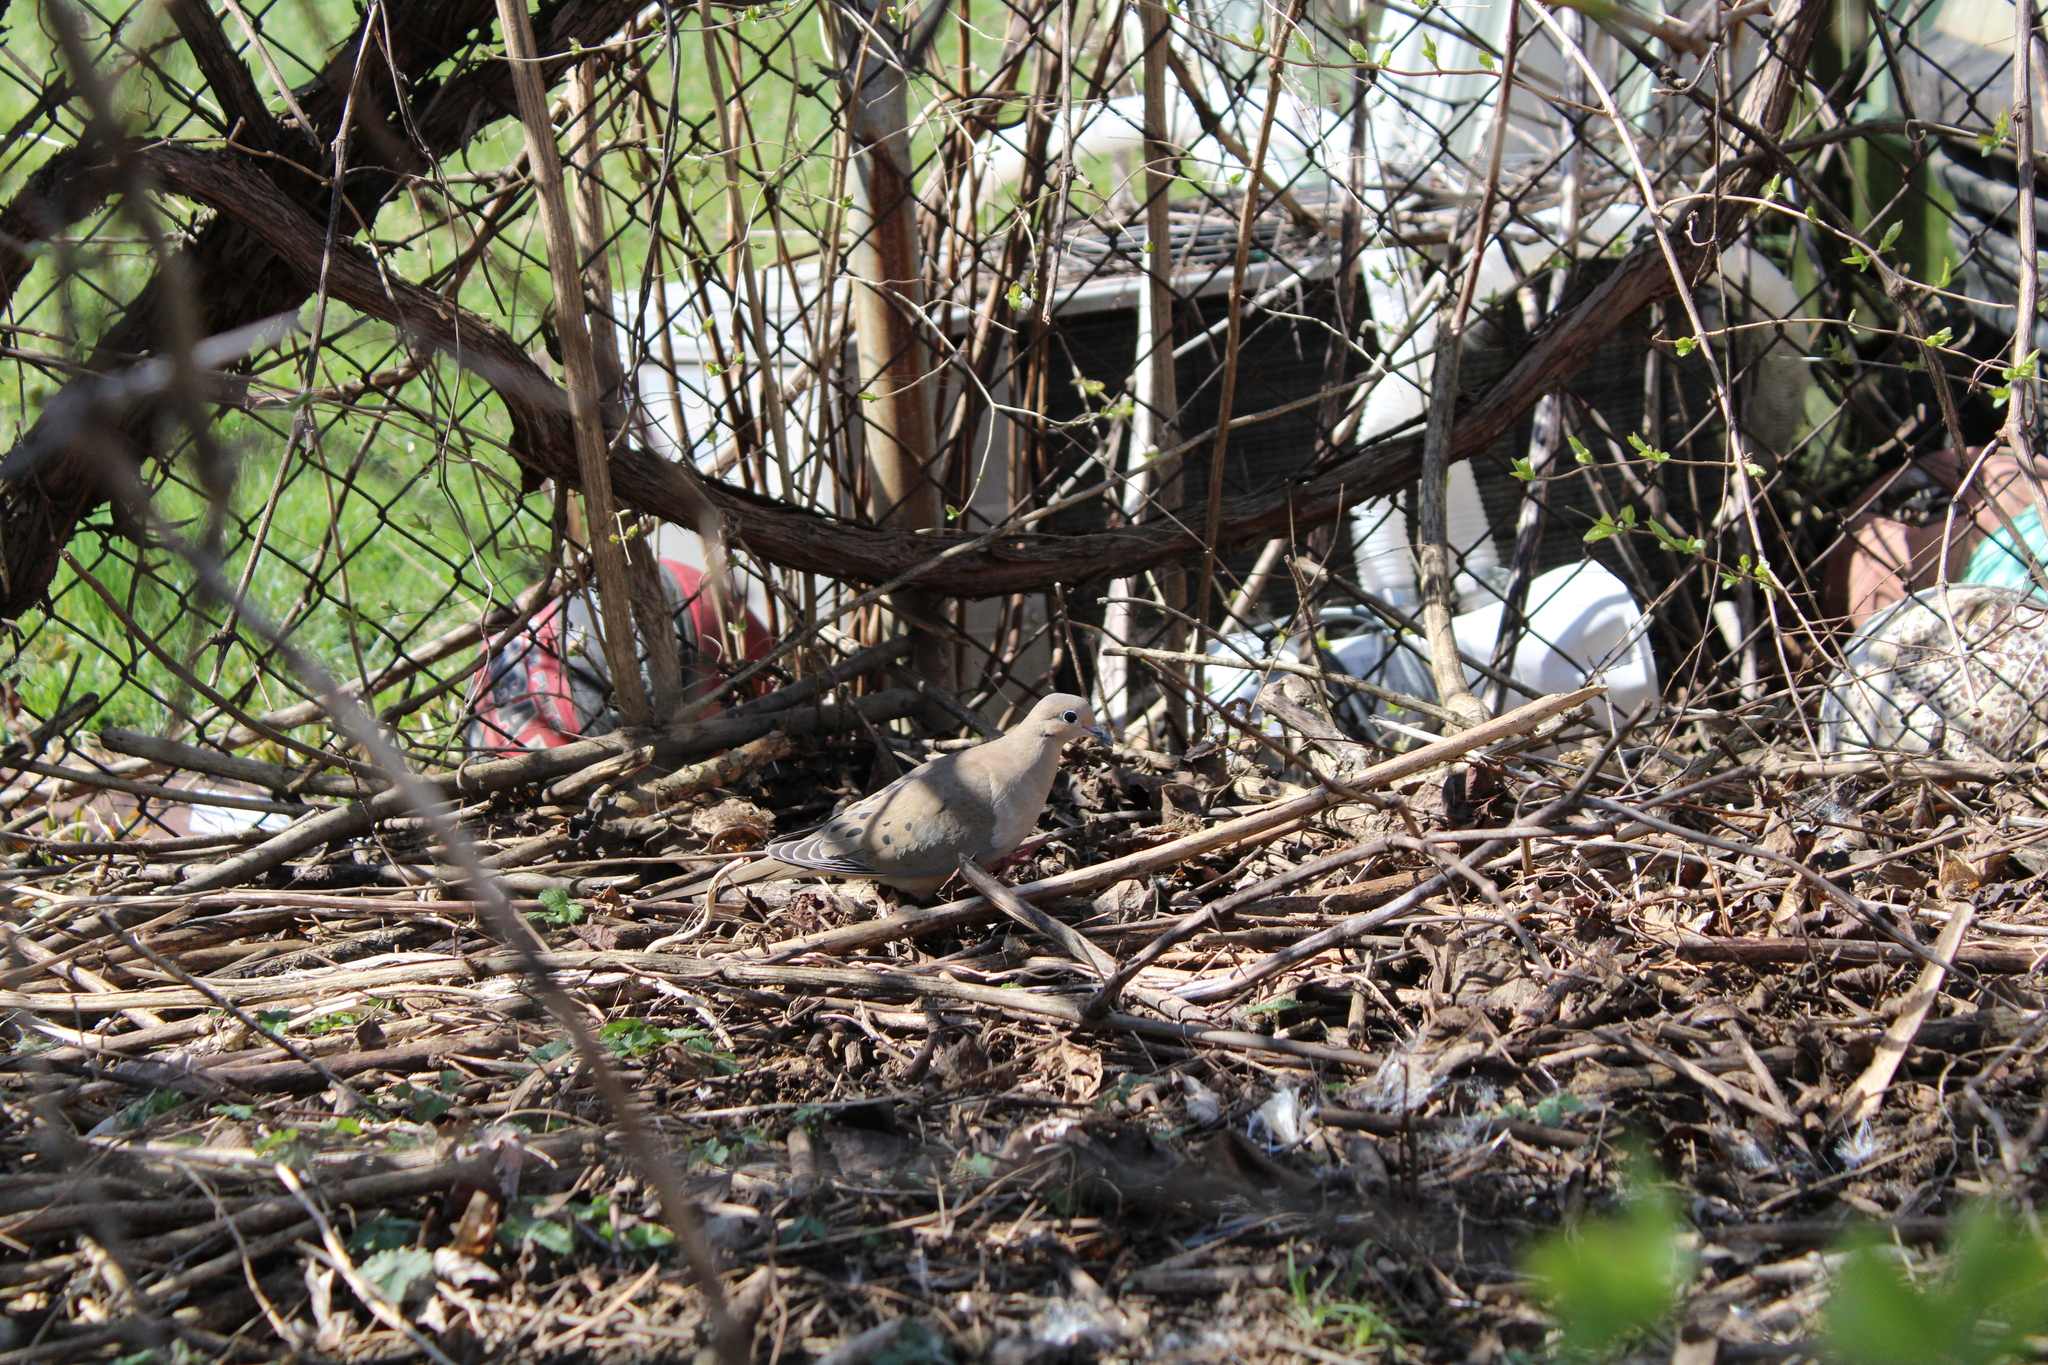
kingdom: Animalia
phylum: Chordata
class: Aves
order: Columbiformes
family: Columbidae
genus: Zenaida
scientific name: Zenaida macroura
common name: Mourning dove
